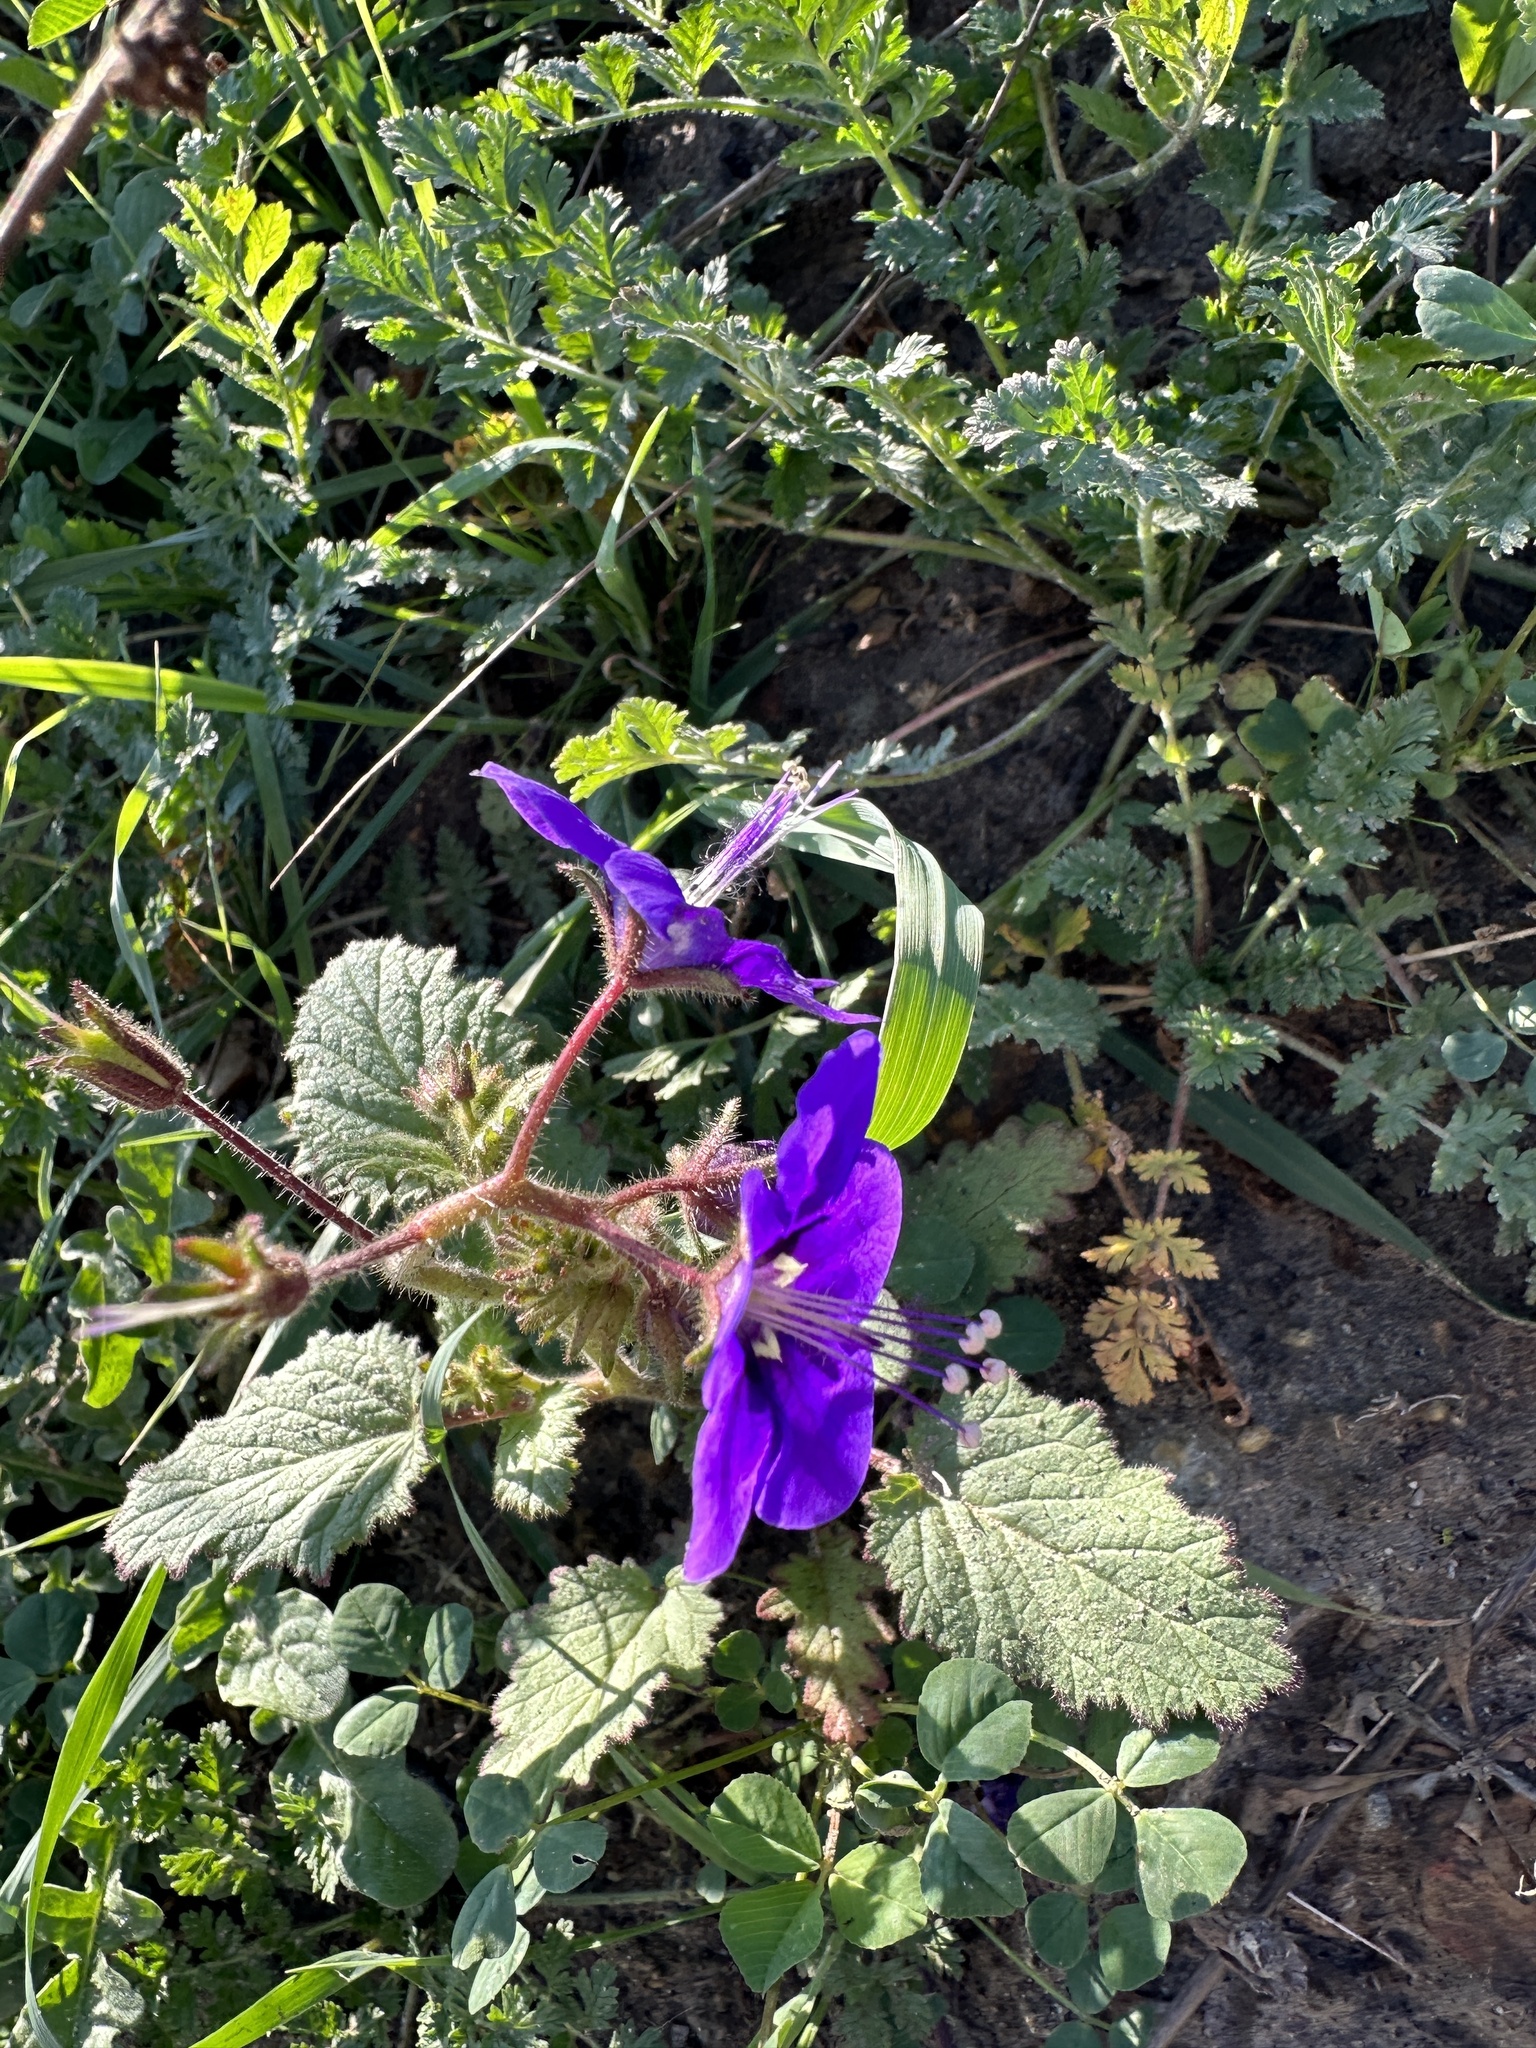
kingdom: Plantae
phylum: Tracheophyta
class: Magnoliopsida
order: Boraginales
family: Hydrophyllaceae
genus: Phacelia
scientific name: Phacelia parryi
